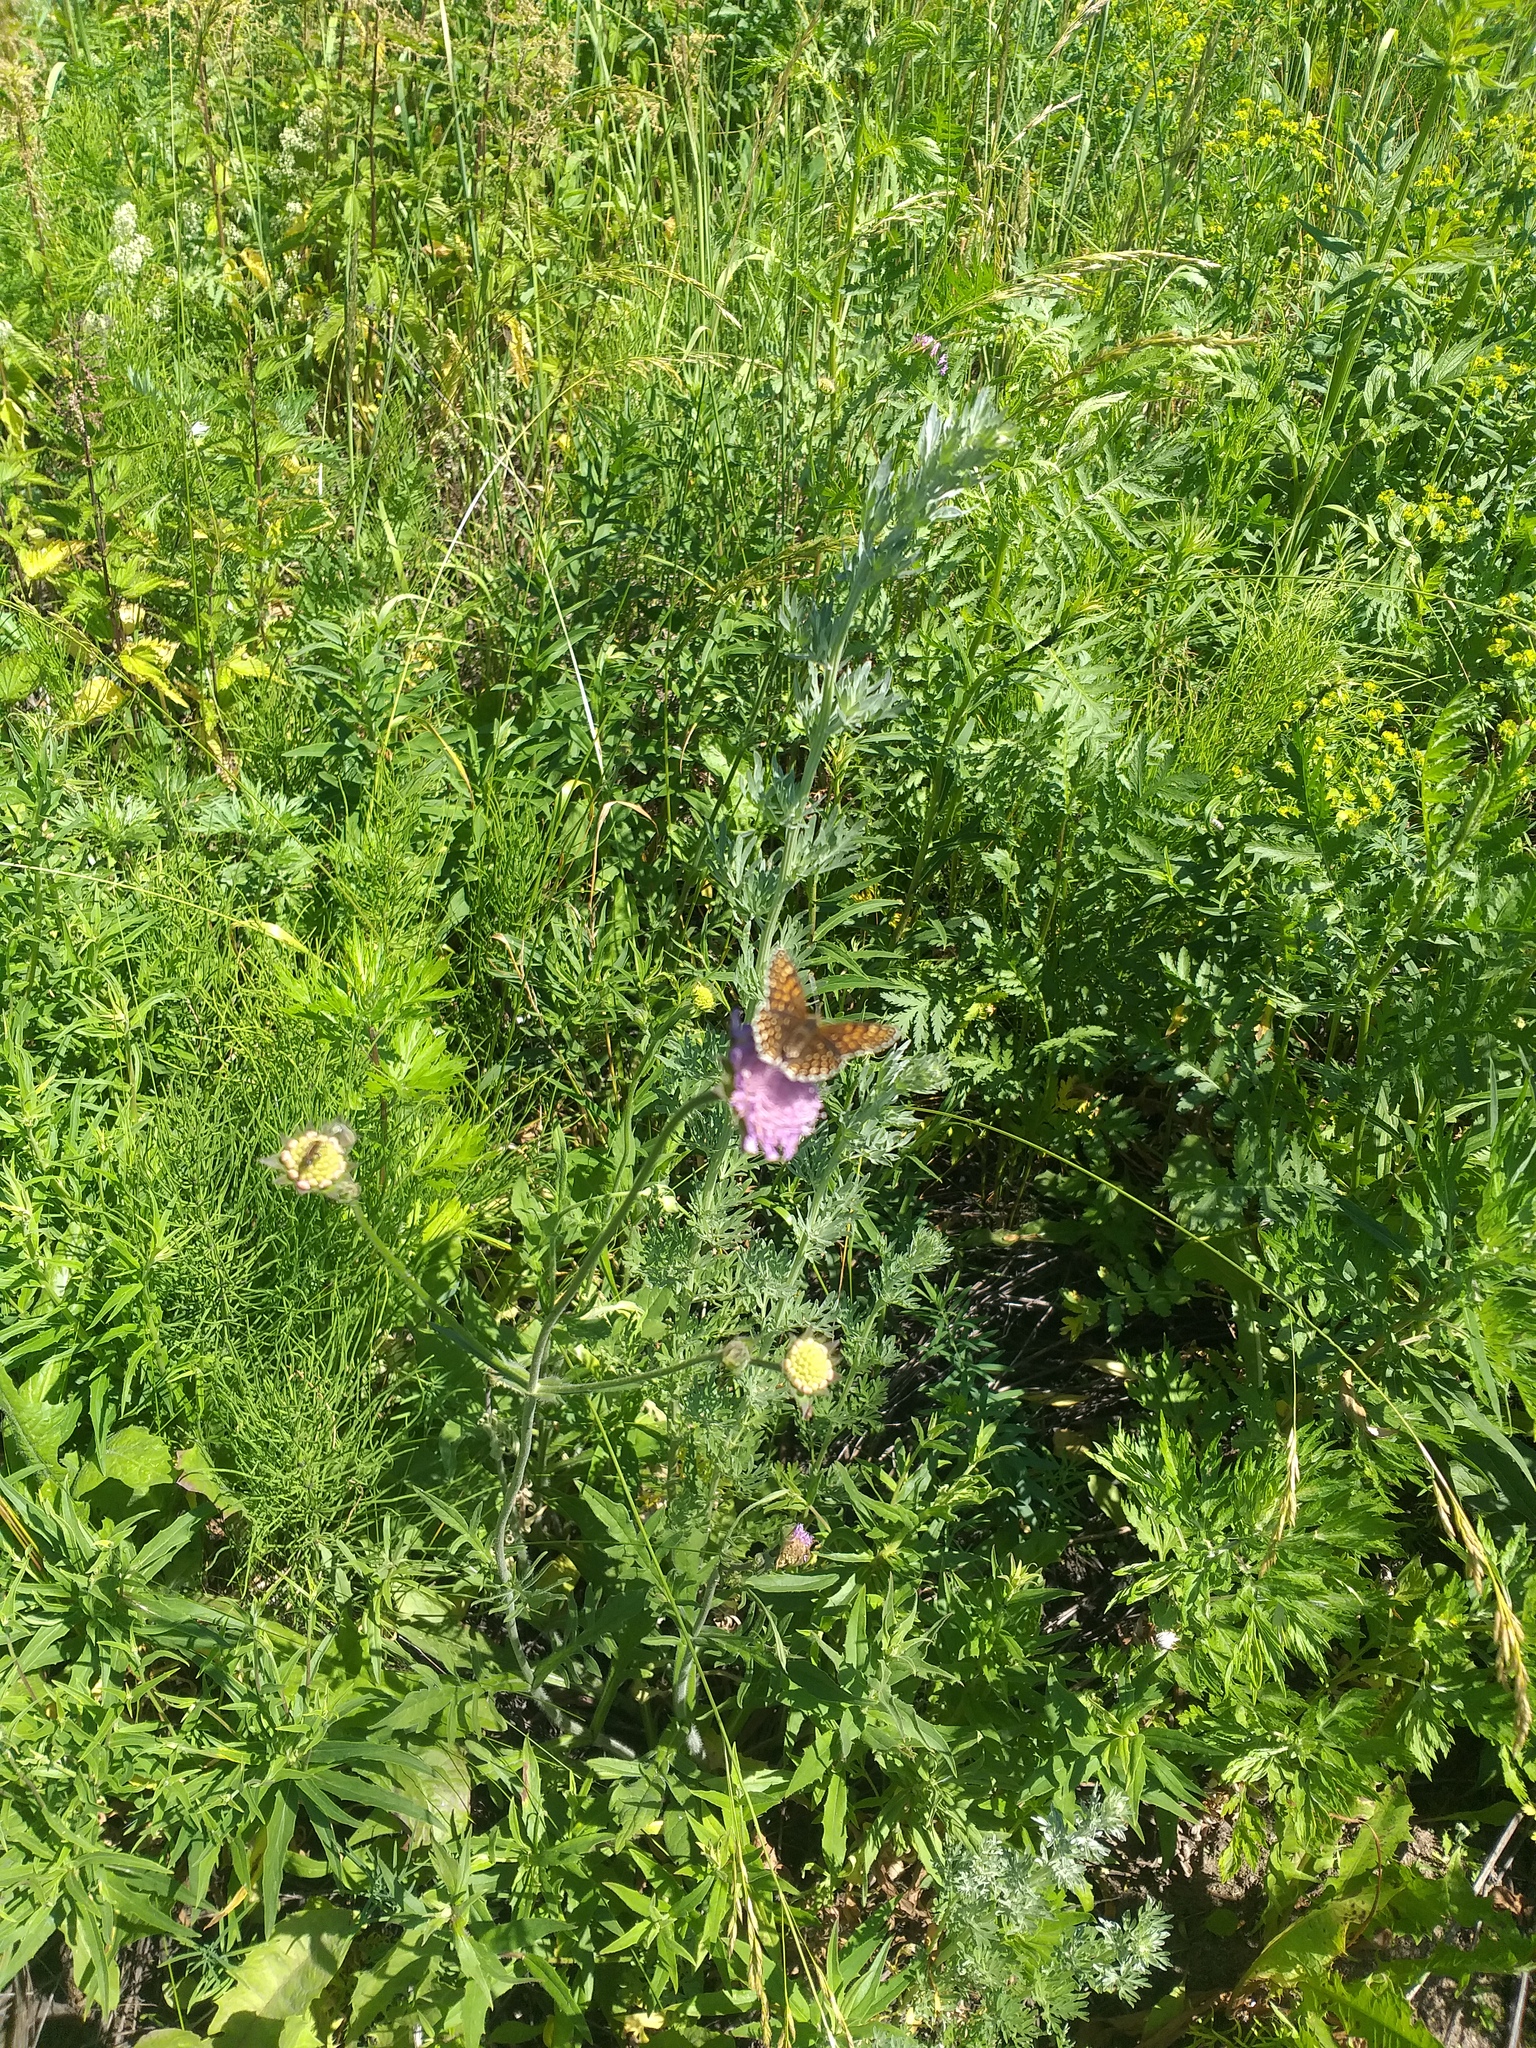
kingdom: Plantae
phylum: Tracheophyta
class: Magnoliopsida
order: Dipsacales
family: Caprifoliaceae
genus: Knautia
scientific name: Knautia arvensis
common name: Field scabiosa
